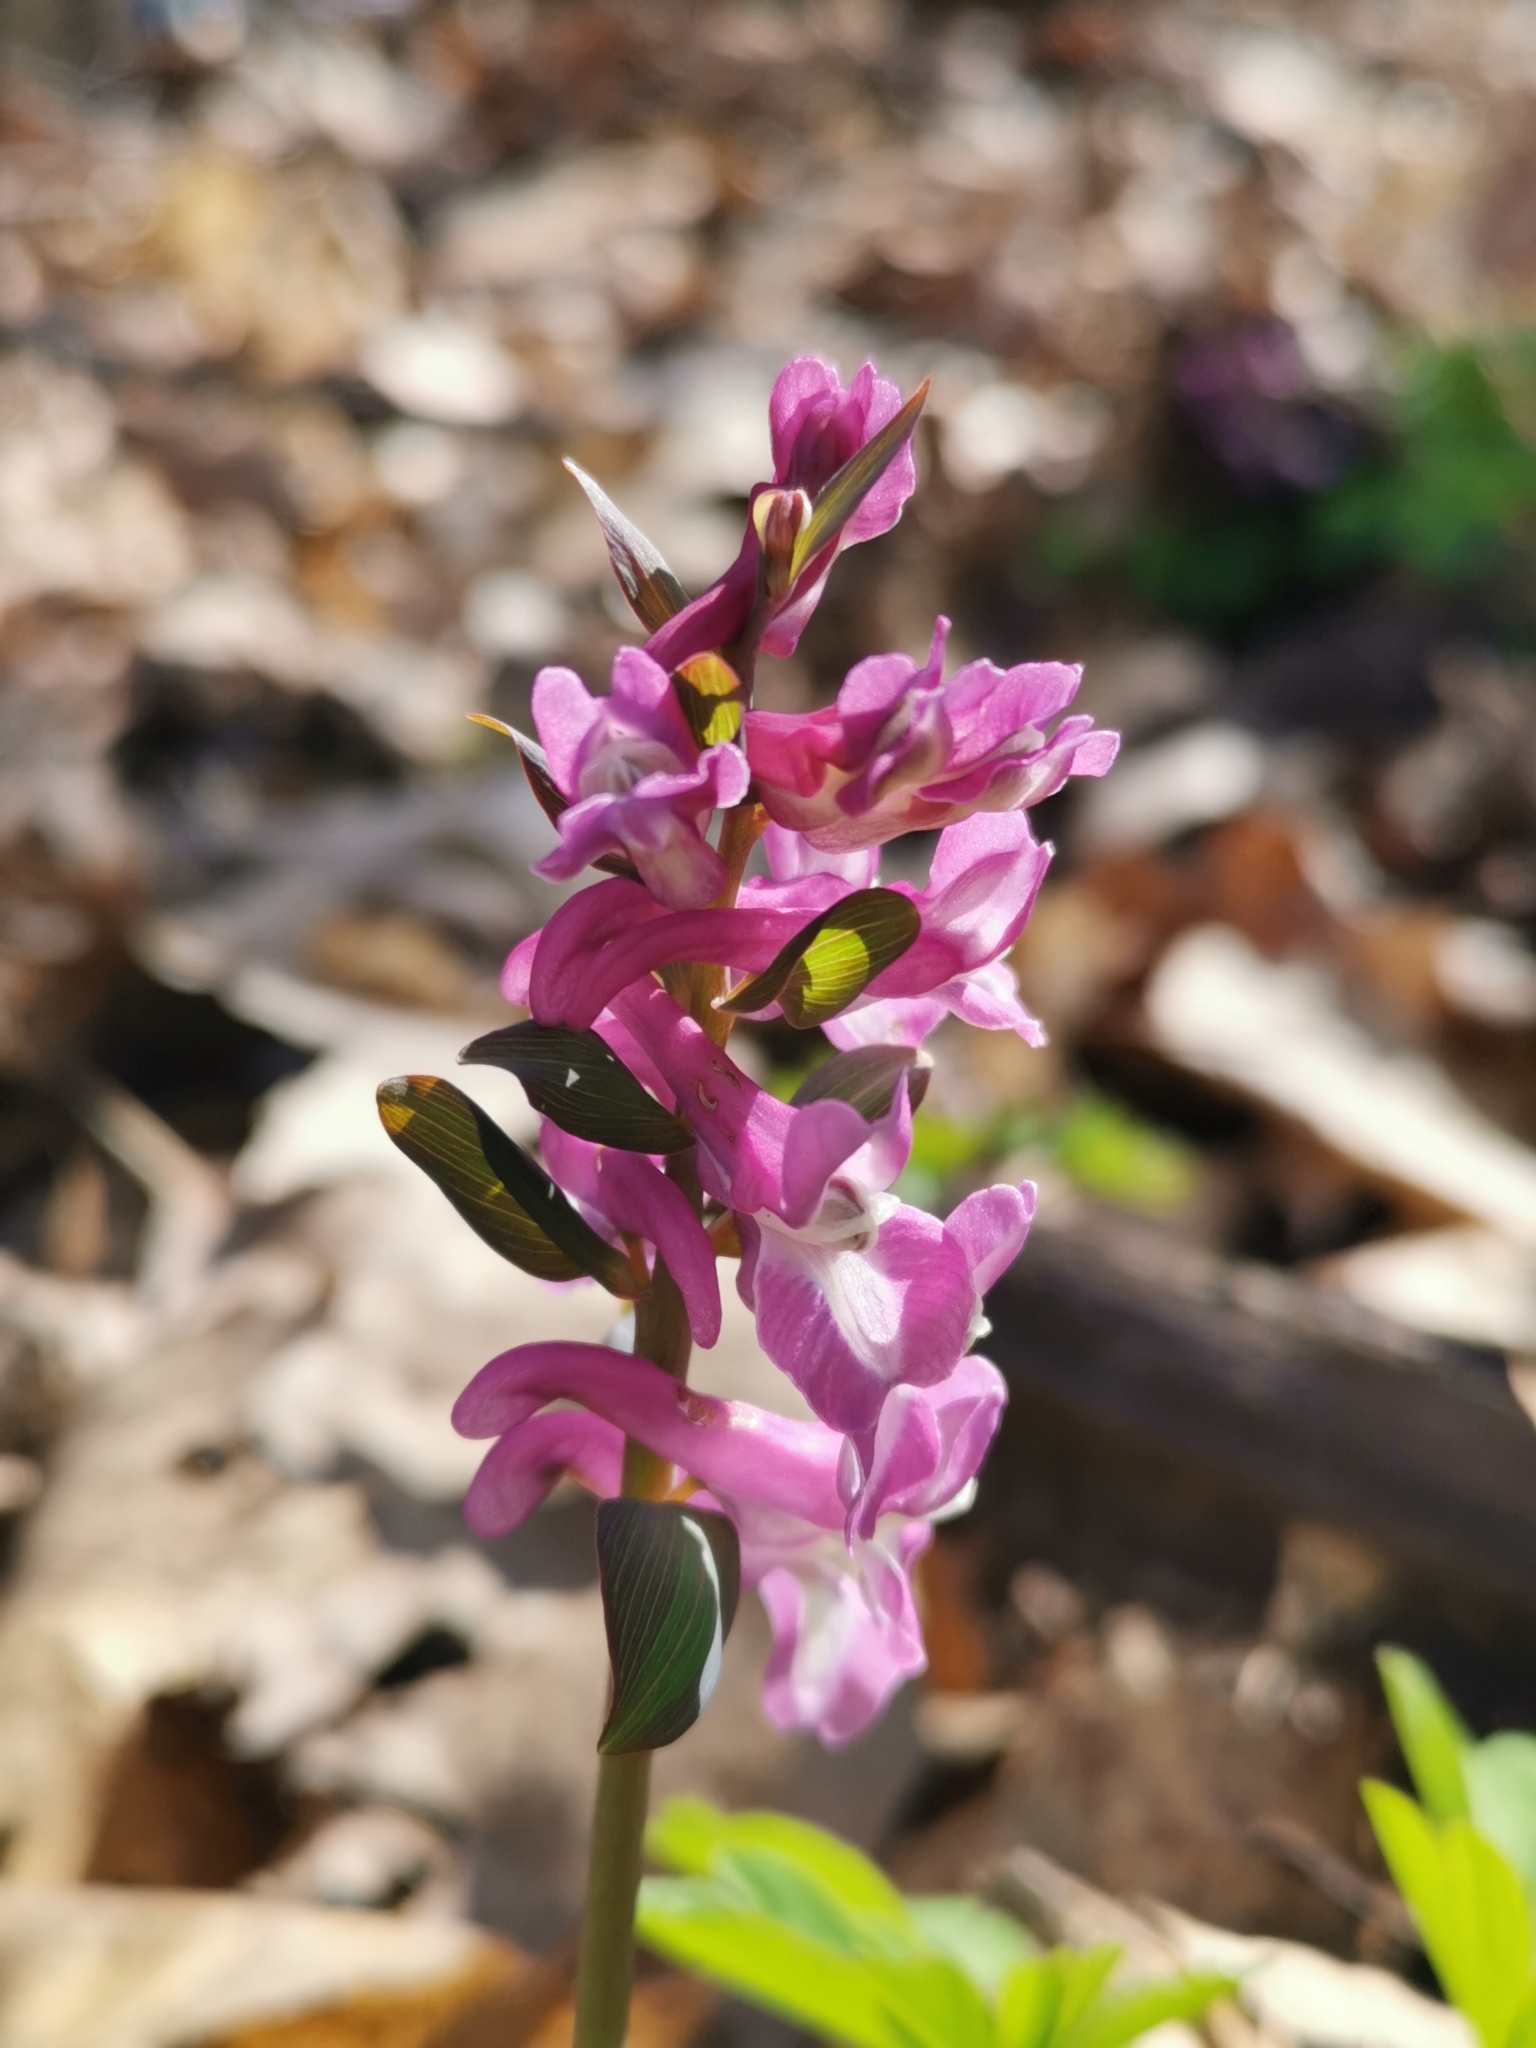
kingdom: Plantae
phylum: Tracheophyta
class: Magnoliopsida
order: Ranunculales
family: Papaveraceae
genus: Corydalis
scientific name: Corydalis cava
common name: Hollowroot
